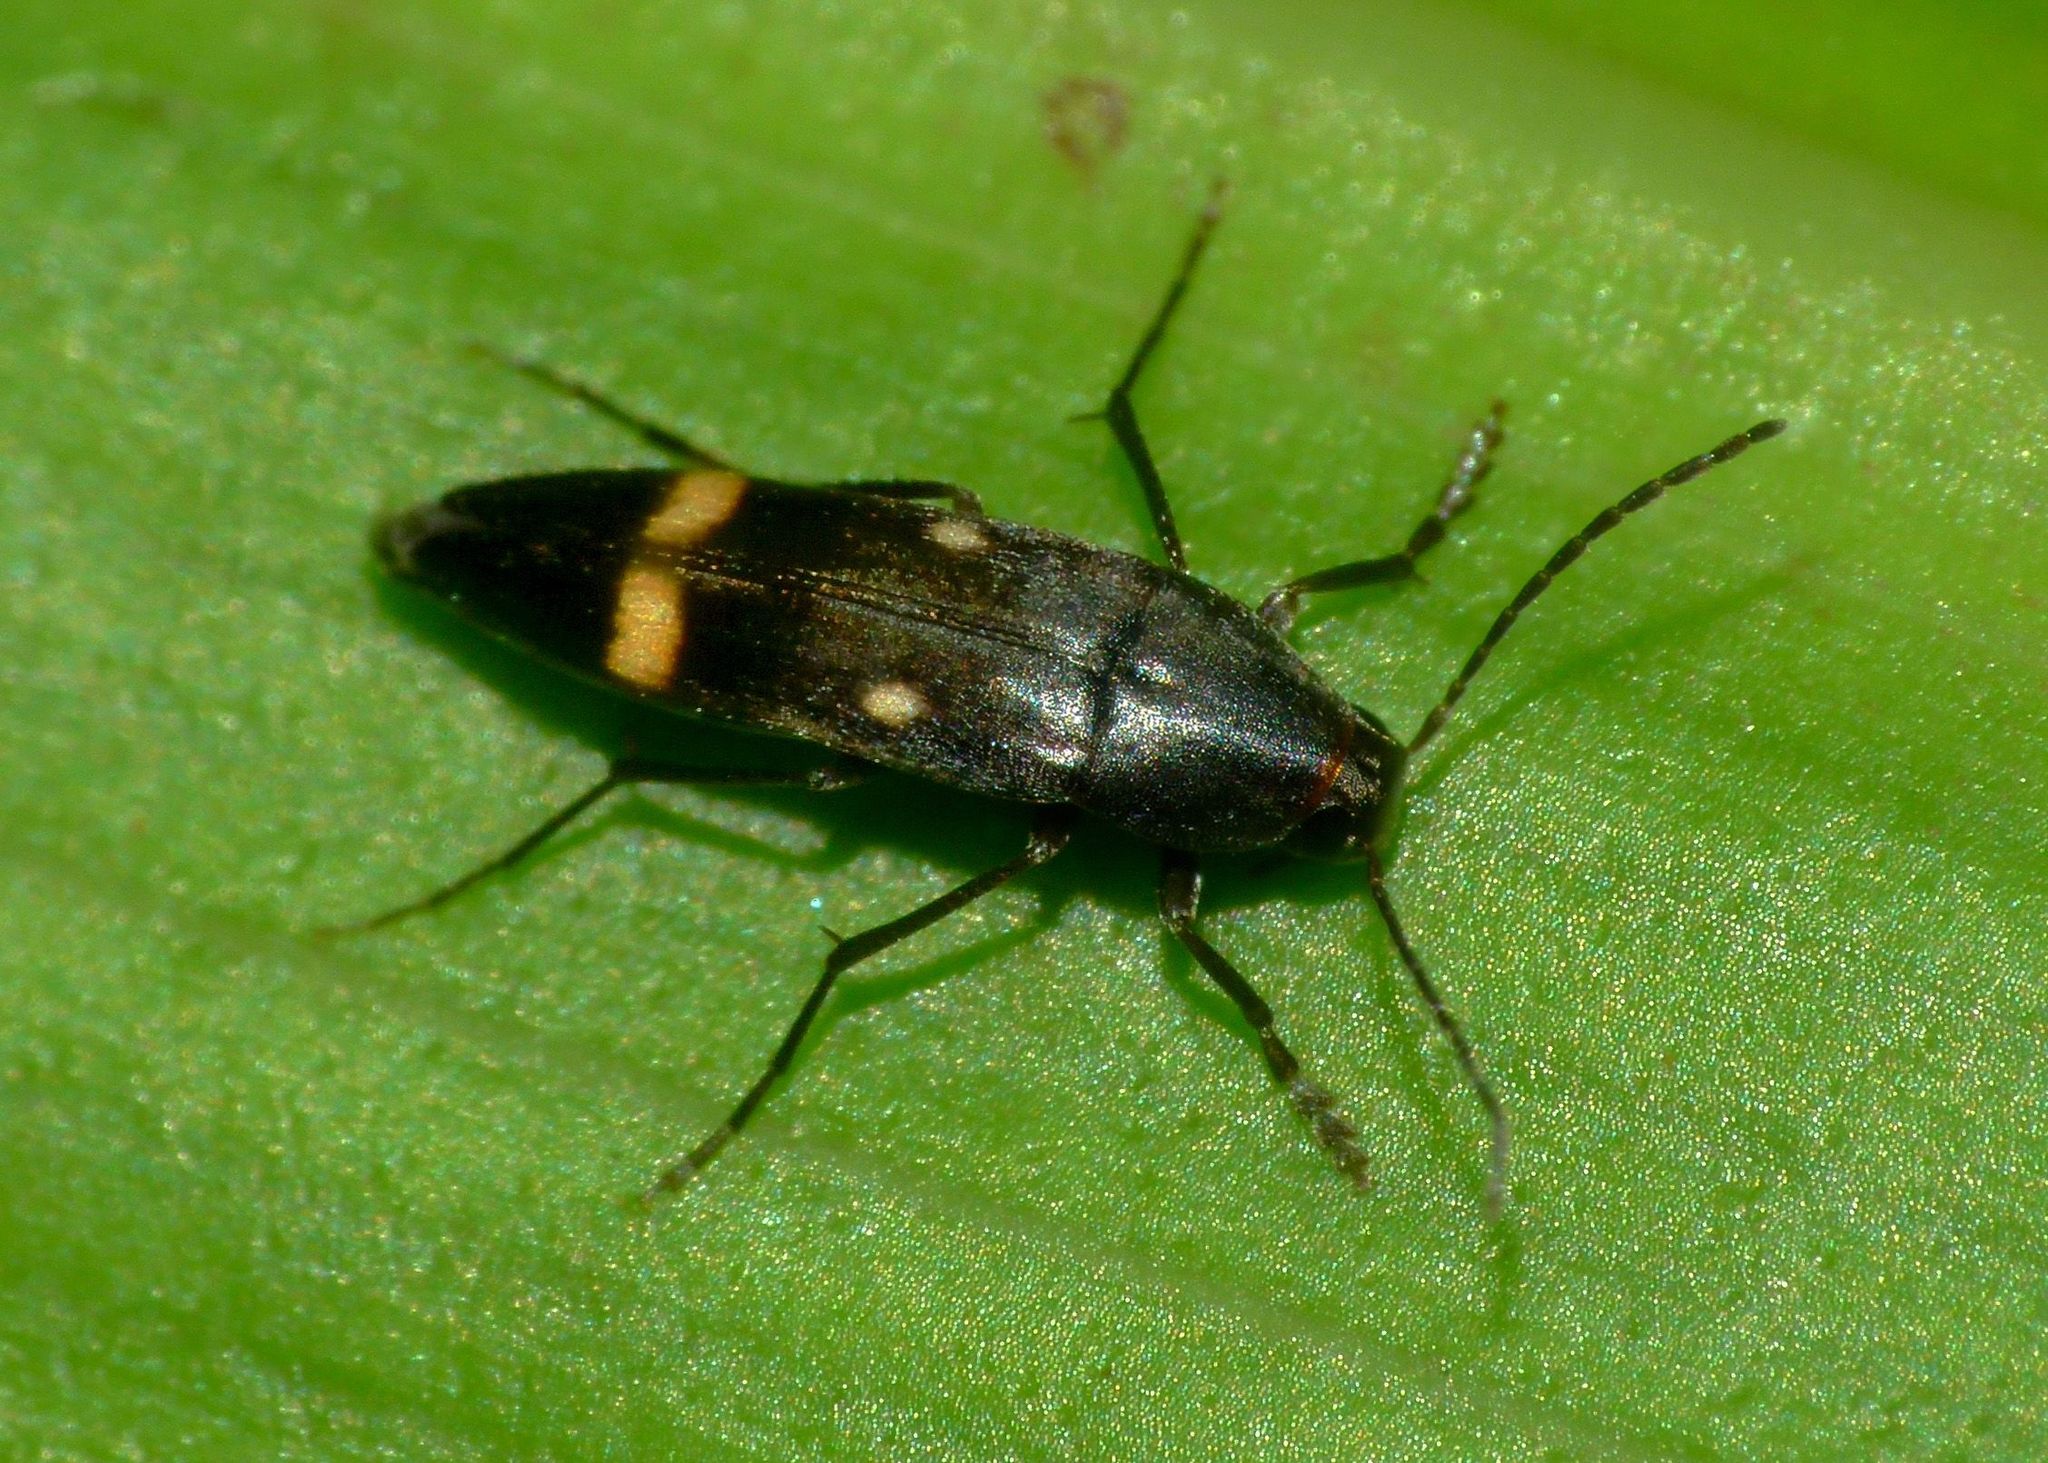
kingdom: Animalia
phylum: Arthropoda
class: Insecta
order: Coleoptera
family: Melandryidae
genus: Ctenoplectron
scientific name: Ctenoplectron
